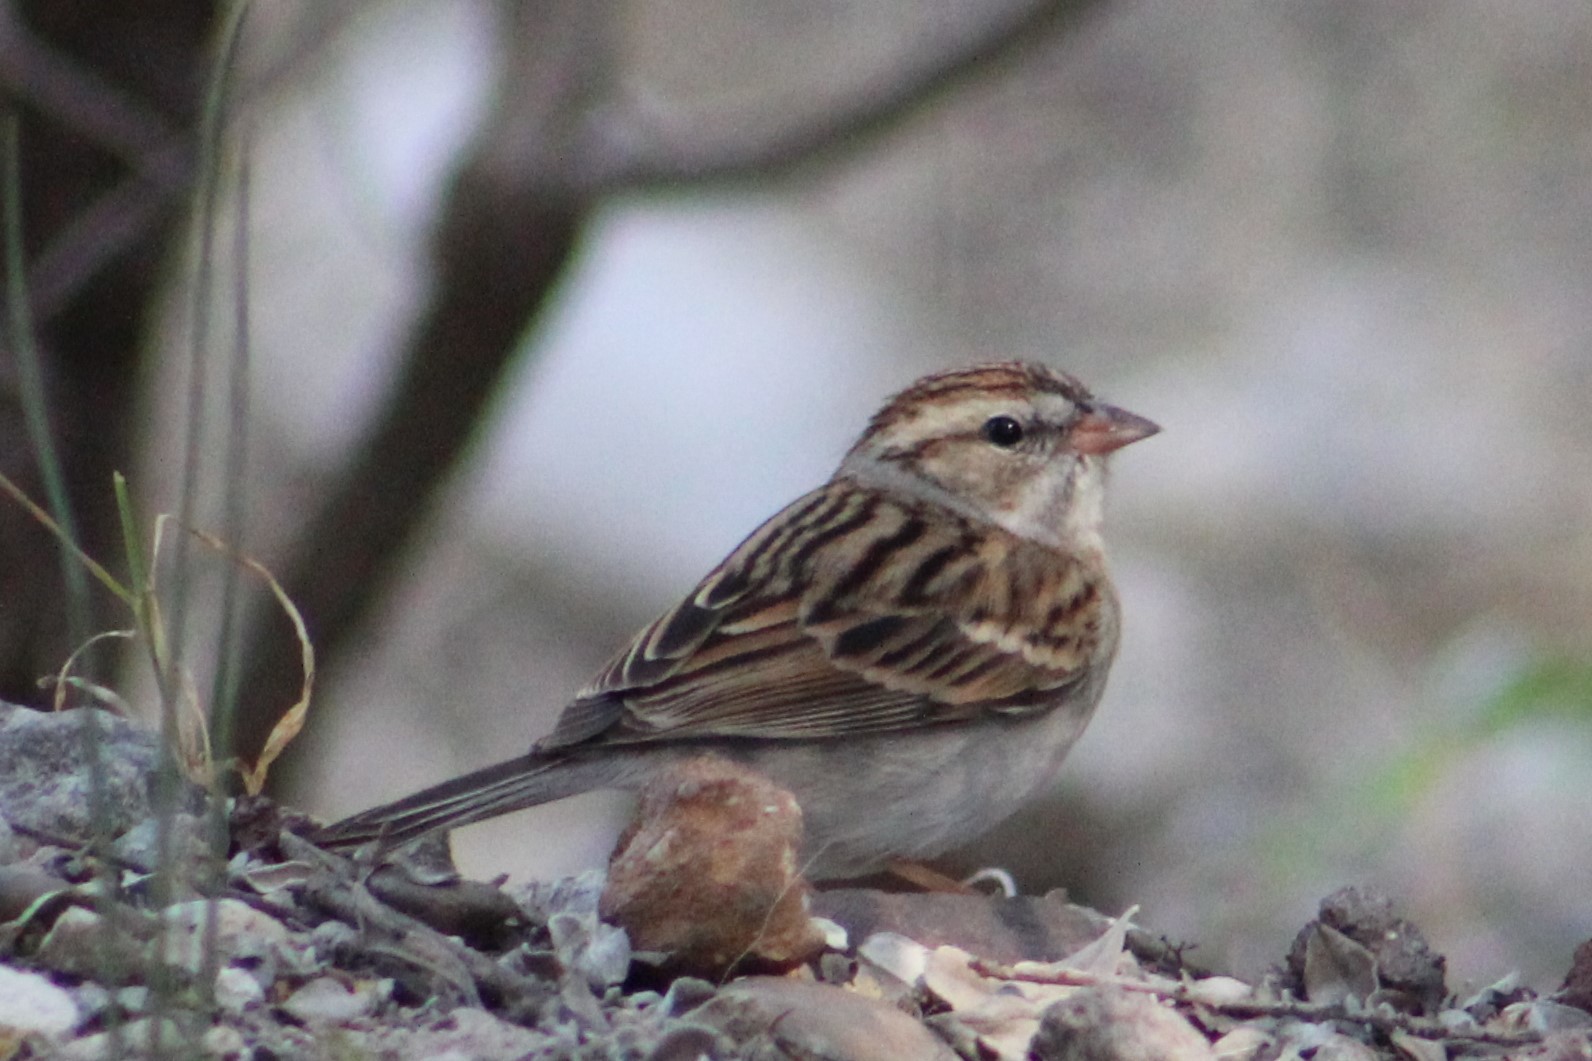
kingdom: Animalia
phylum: Chordata
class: Aves
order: Passeriformes
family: Passerellidae
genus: Spizella
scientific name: Spizella passerina
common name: Chipping sparrow
